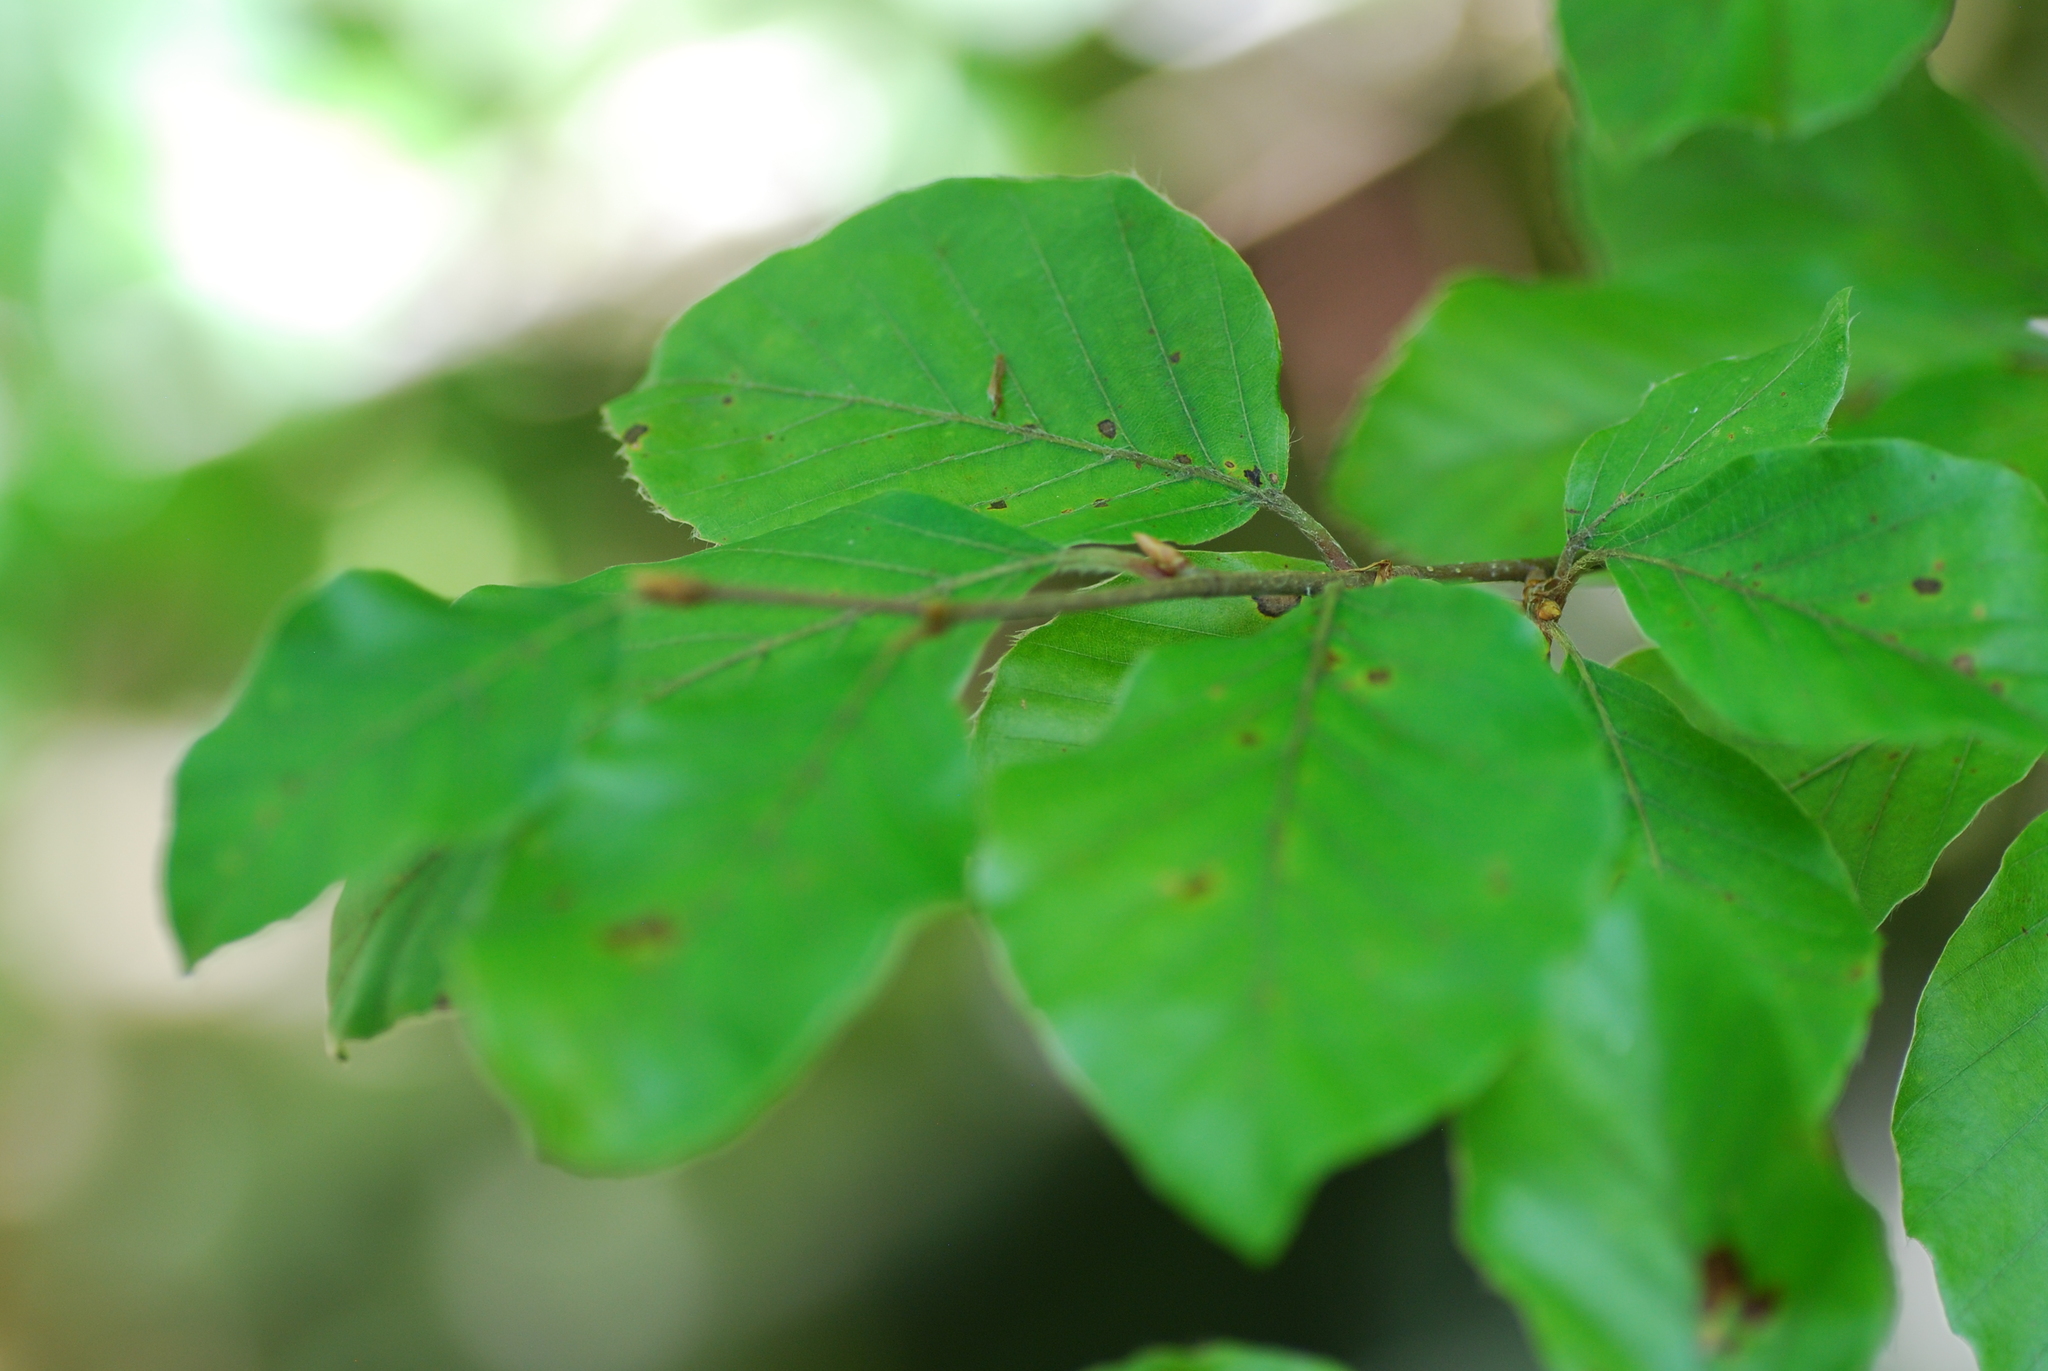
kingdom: Plantae
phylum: Tracheophyta
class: Magnoliopsida
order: Fagales
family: Fagaceae
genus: Fagus
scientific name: Fagus sylvatica
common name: Beech
